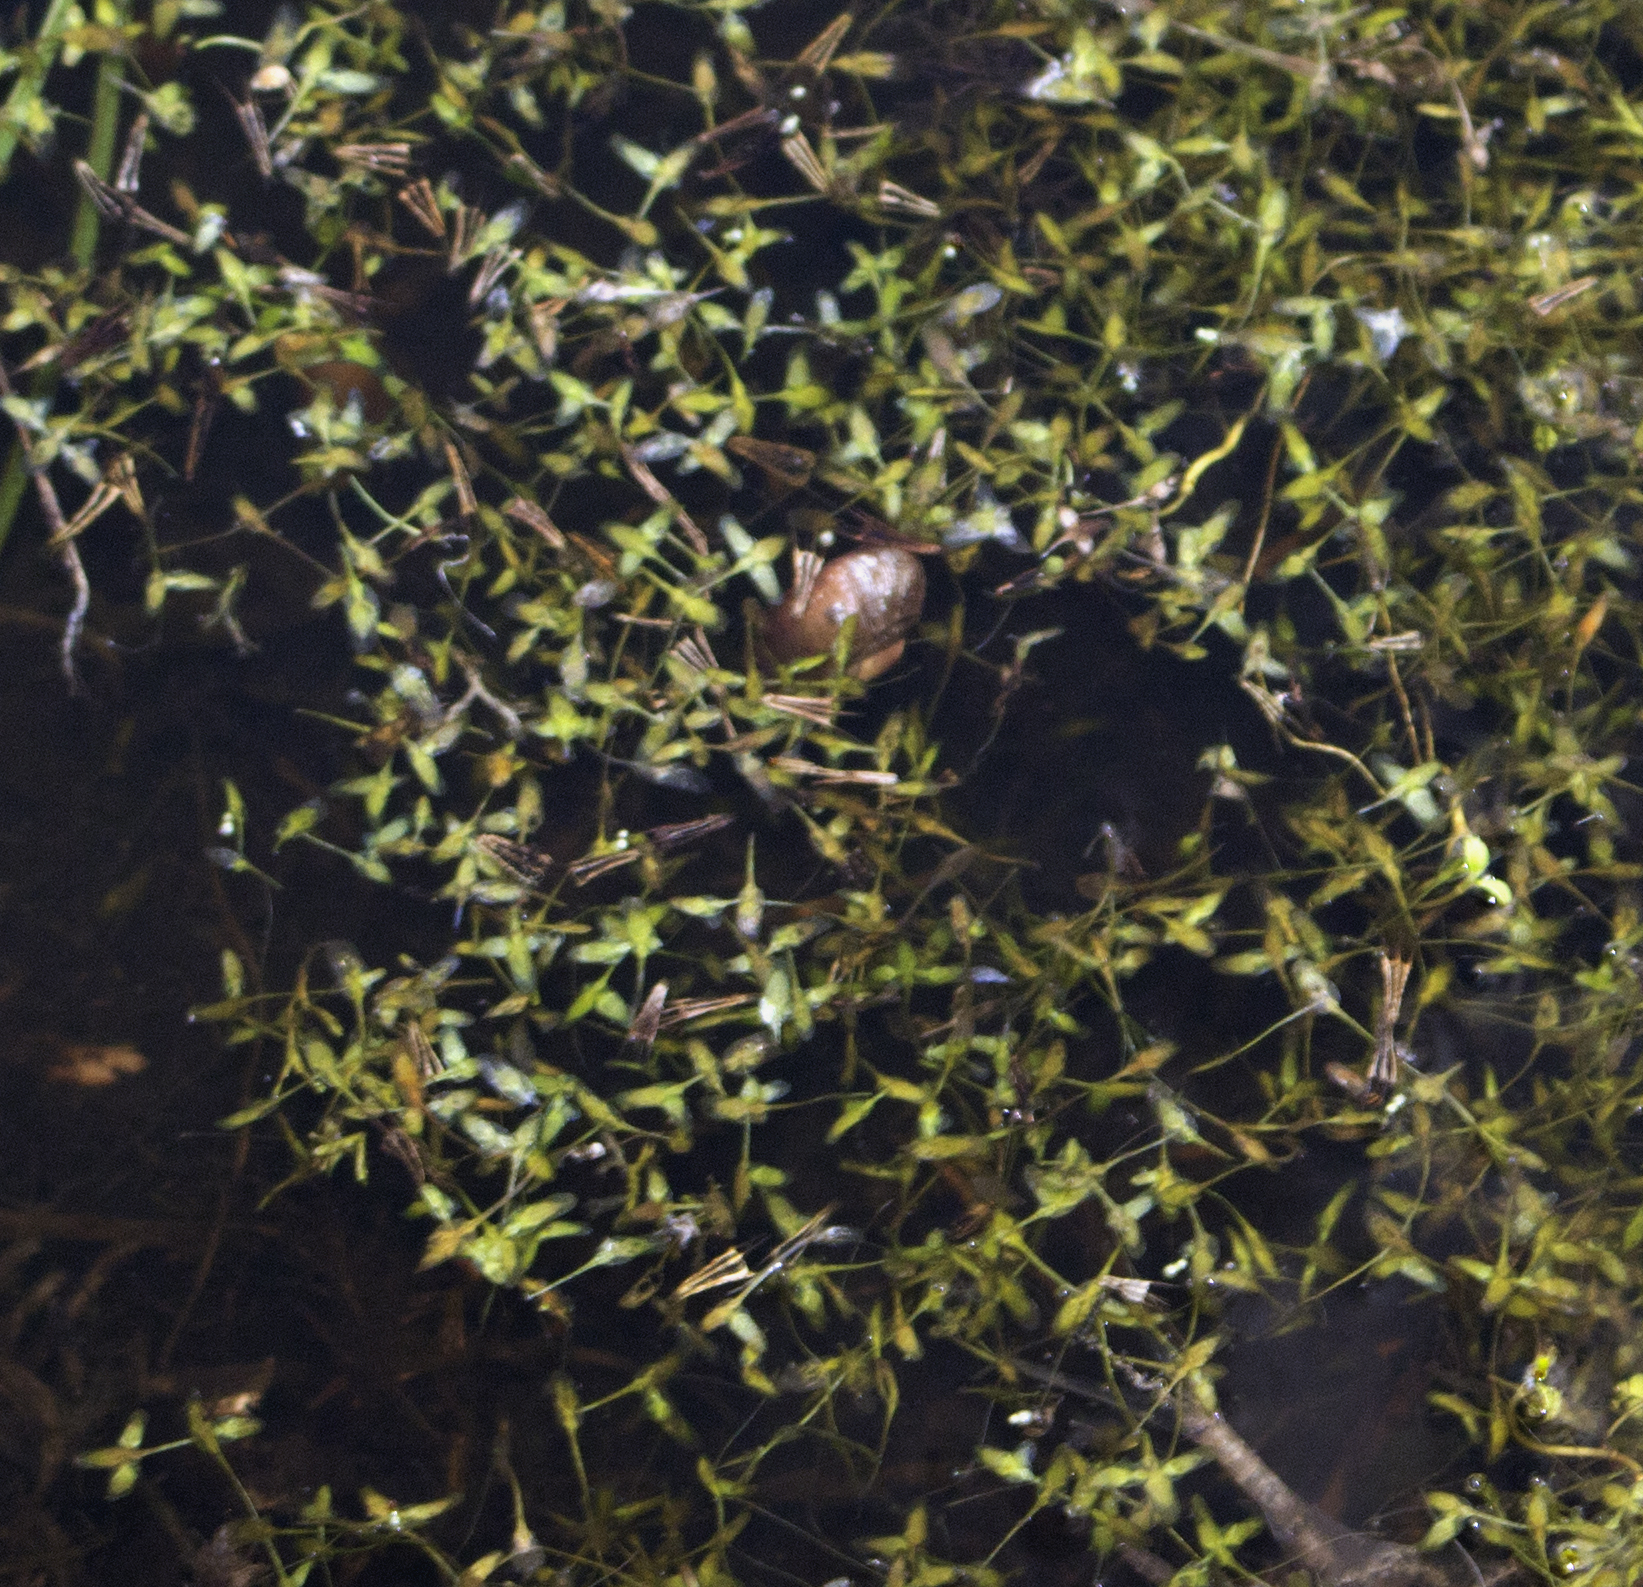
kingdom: Plantae
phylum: Tracheophyta
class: Liliopsida
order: Alismatales
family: Araceae
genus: Lemna
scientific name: Lemna trisulca
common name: Ivy-leaved duckweed
